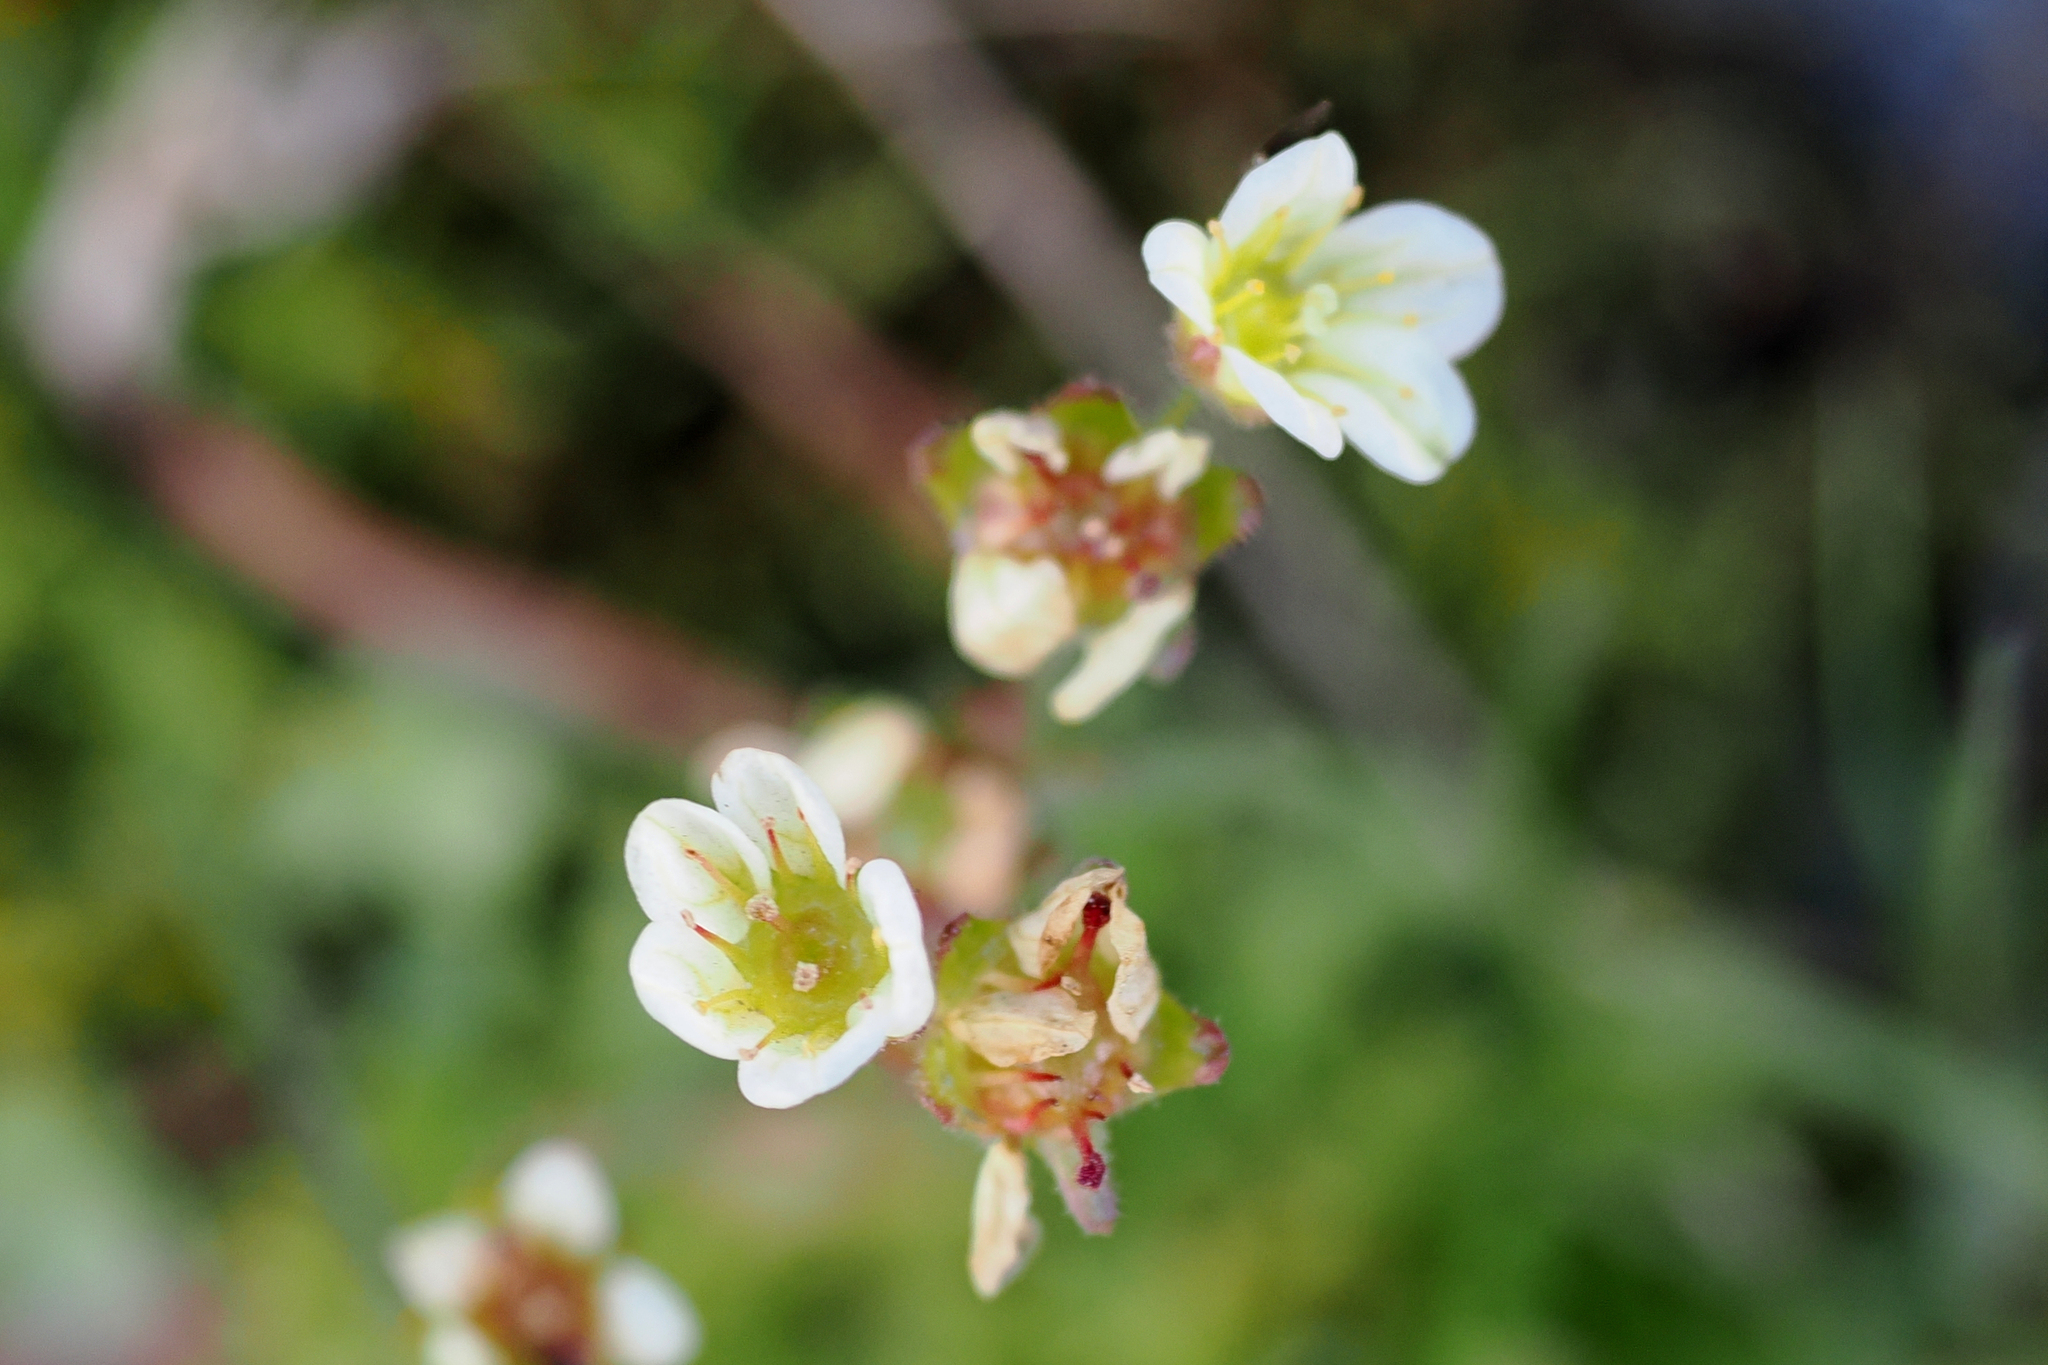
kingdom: Plantae
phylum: Tracheophyta
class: Magnoliopsida
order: Saxifragales
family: Saxifragaceae
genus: Saxifraga
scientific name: Saxifraga cespitosa
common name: Tufted saxifrage
